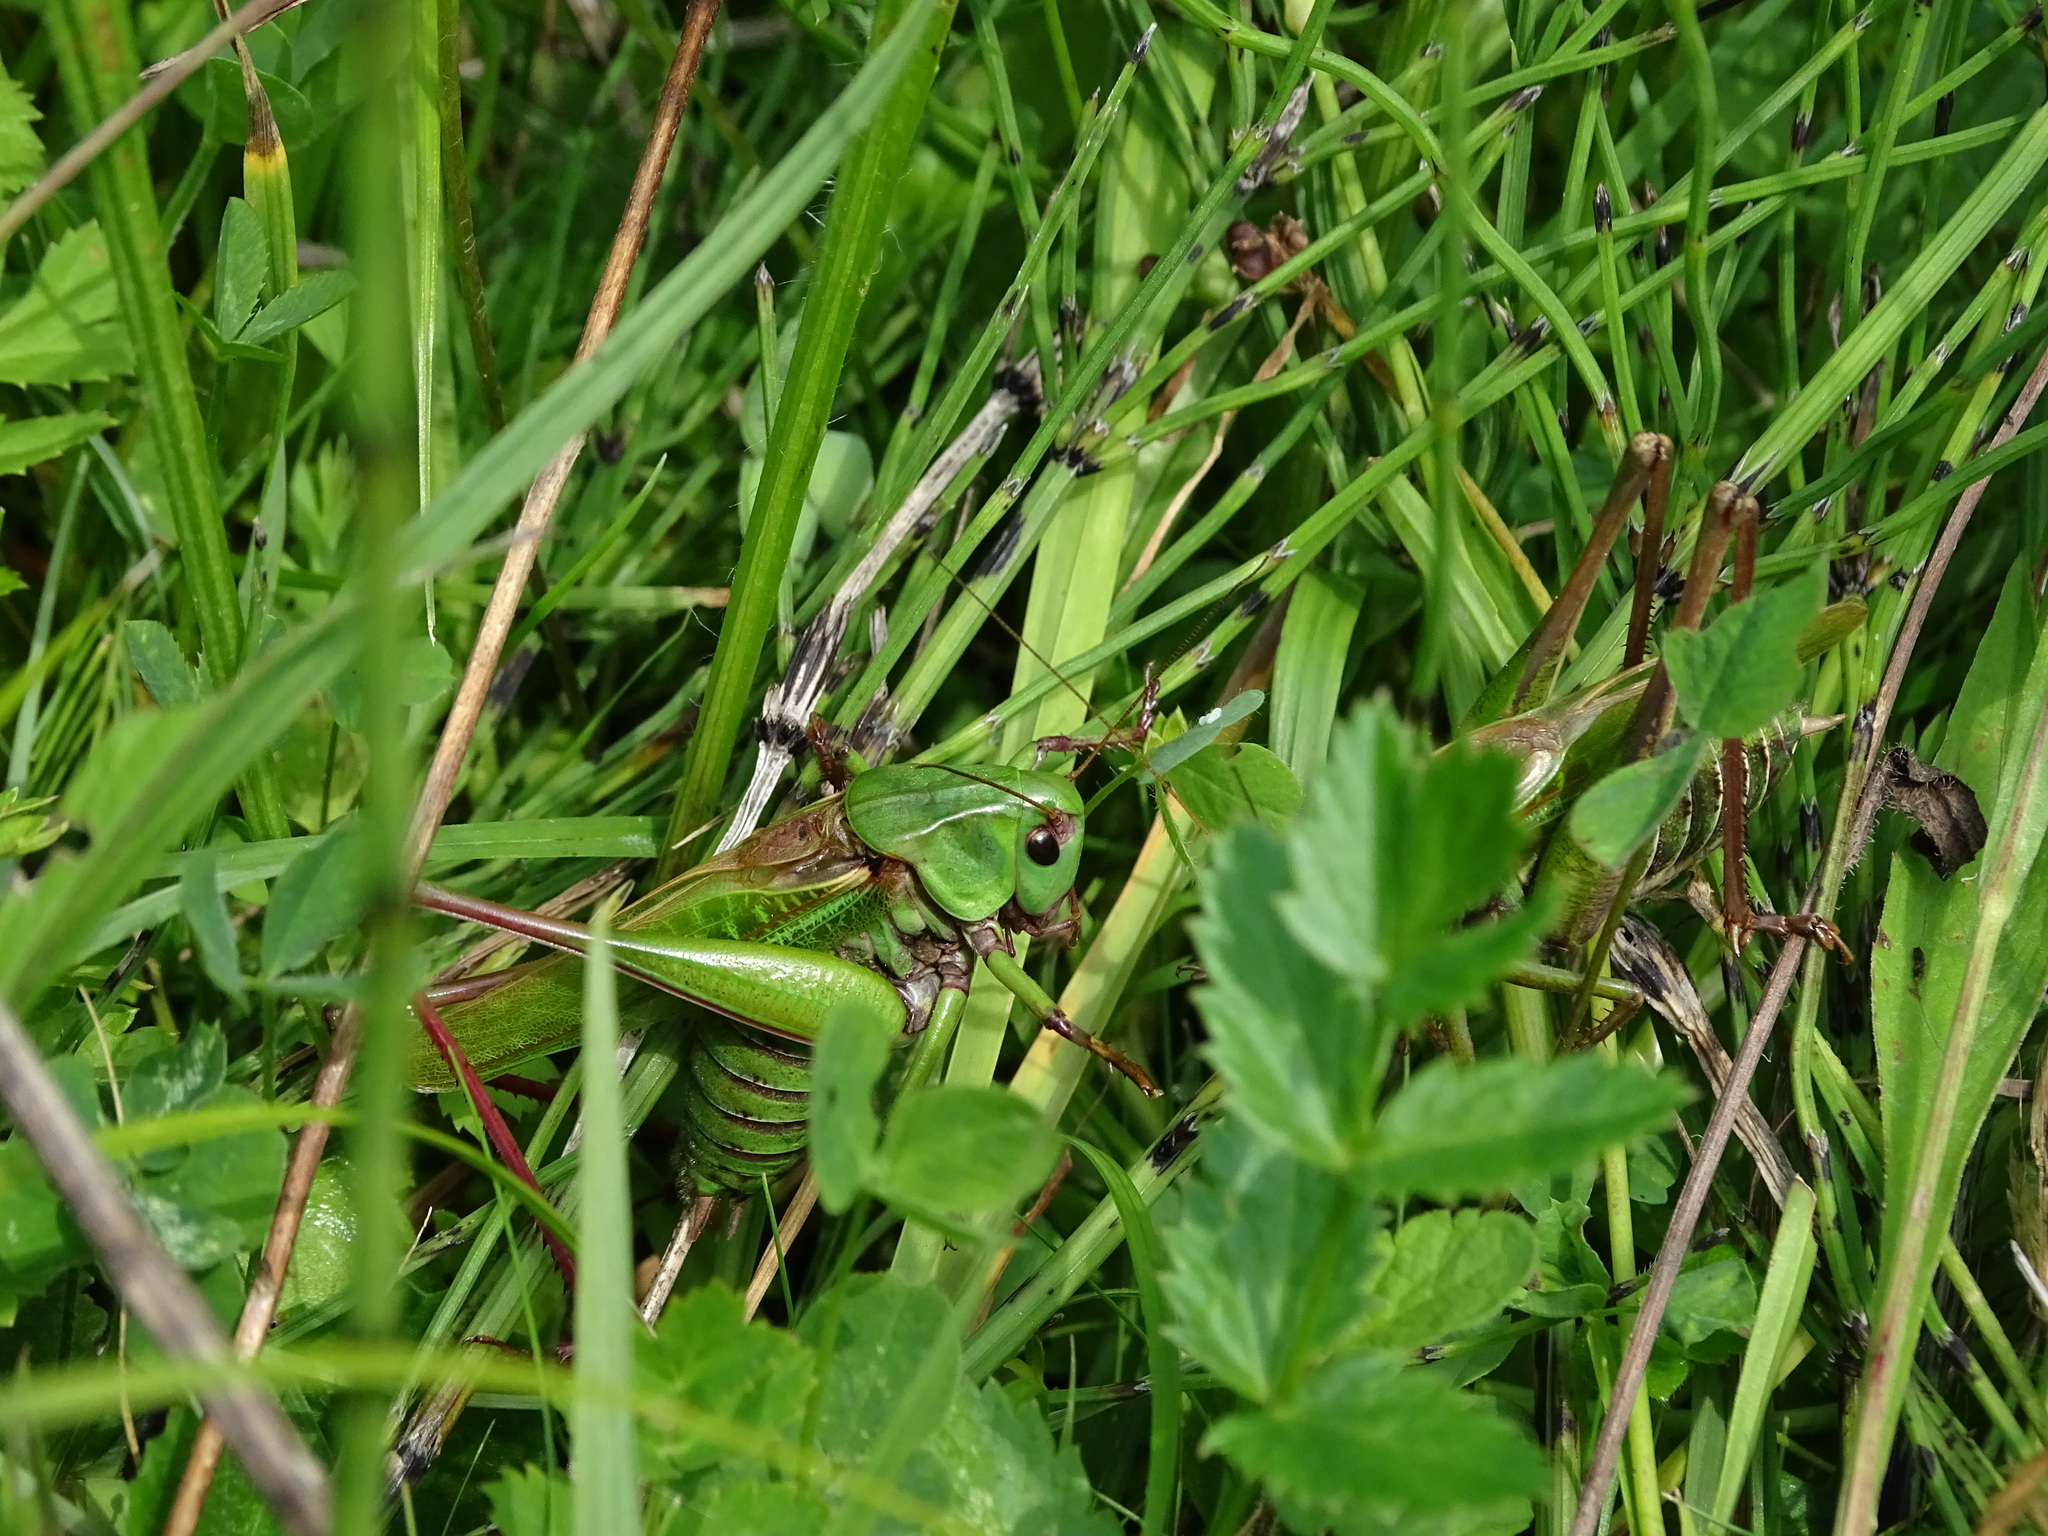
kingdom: Animalia
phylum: Arthropoda
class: Insecta
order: Orthoptera
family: Tettigoniidae
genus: Decticus
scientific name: Decticus verrucivorus
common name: Wart-biter
